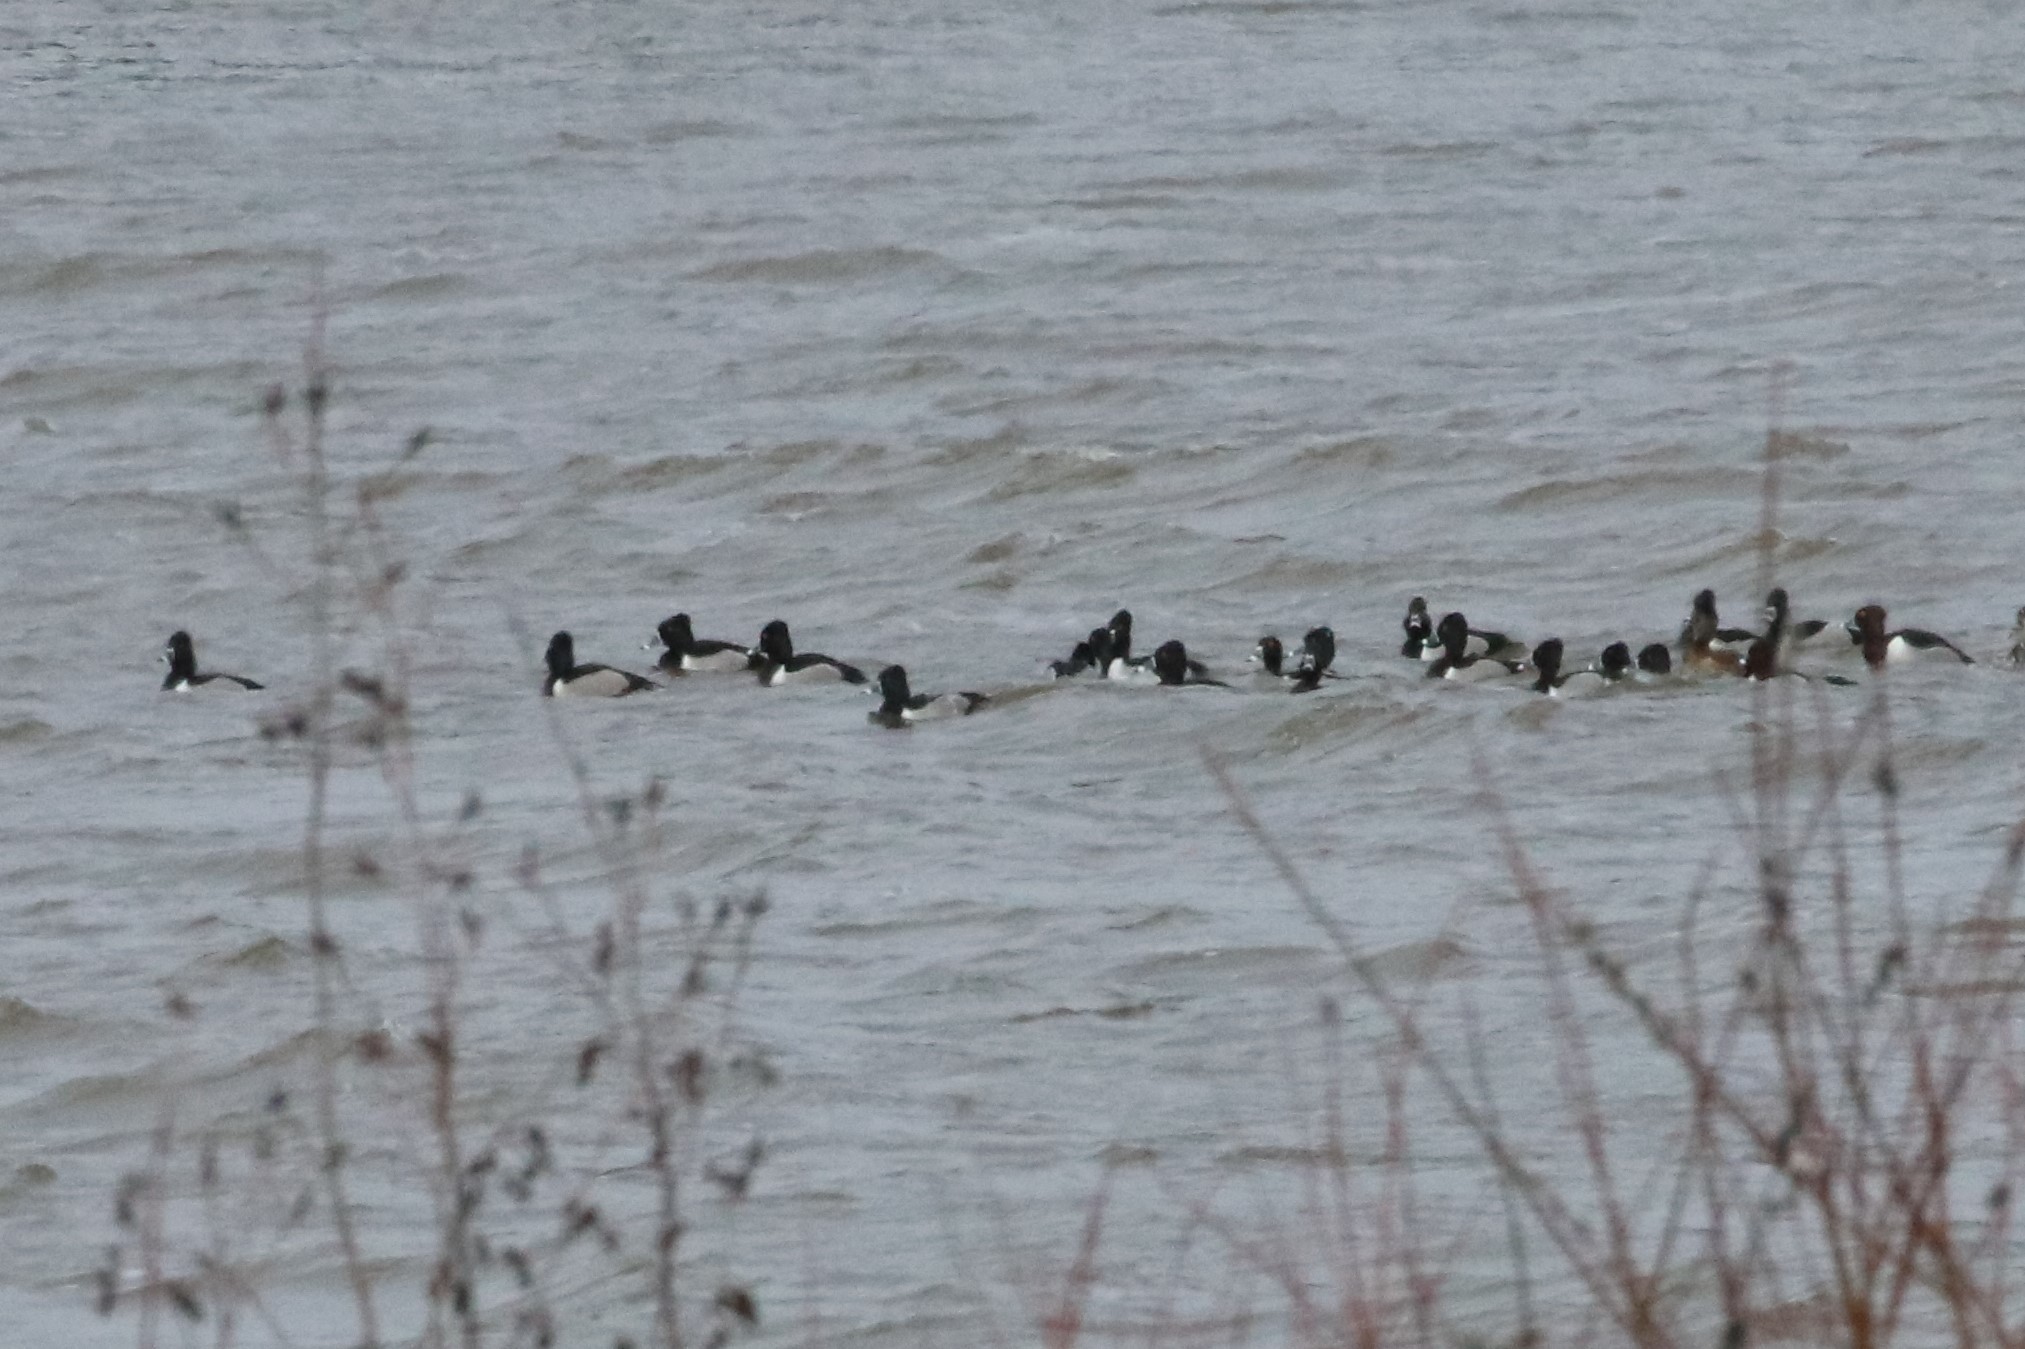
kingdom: Animalia
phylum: Chordata
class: Aves
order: Anseriformes
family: Anatidae
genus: Aythya
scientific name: Aythya collaris
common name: Ring-necked duck
